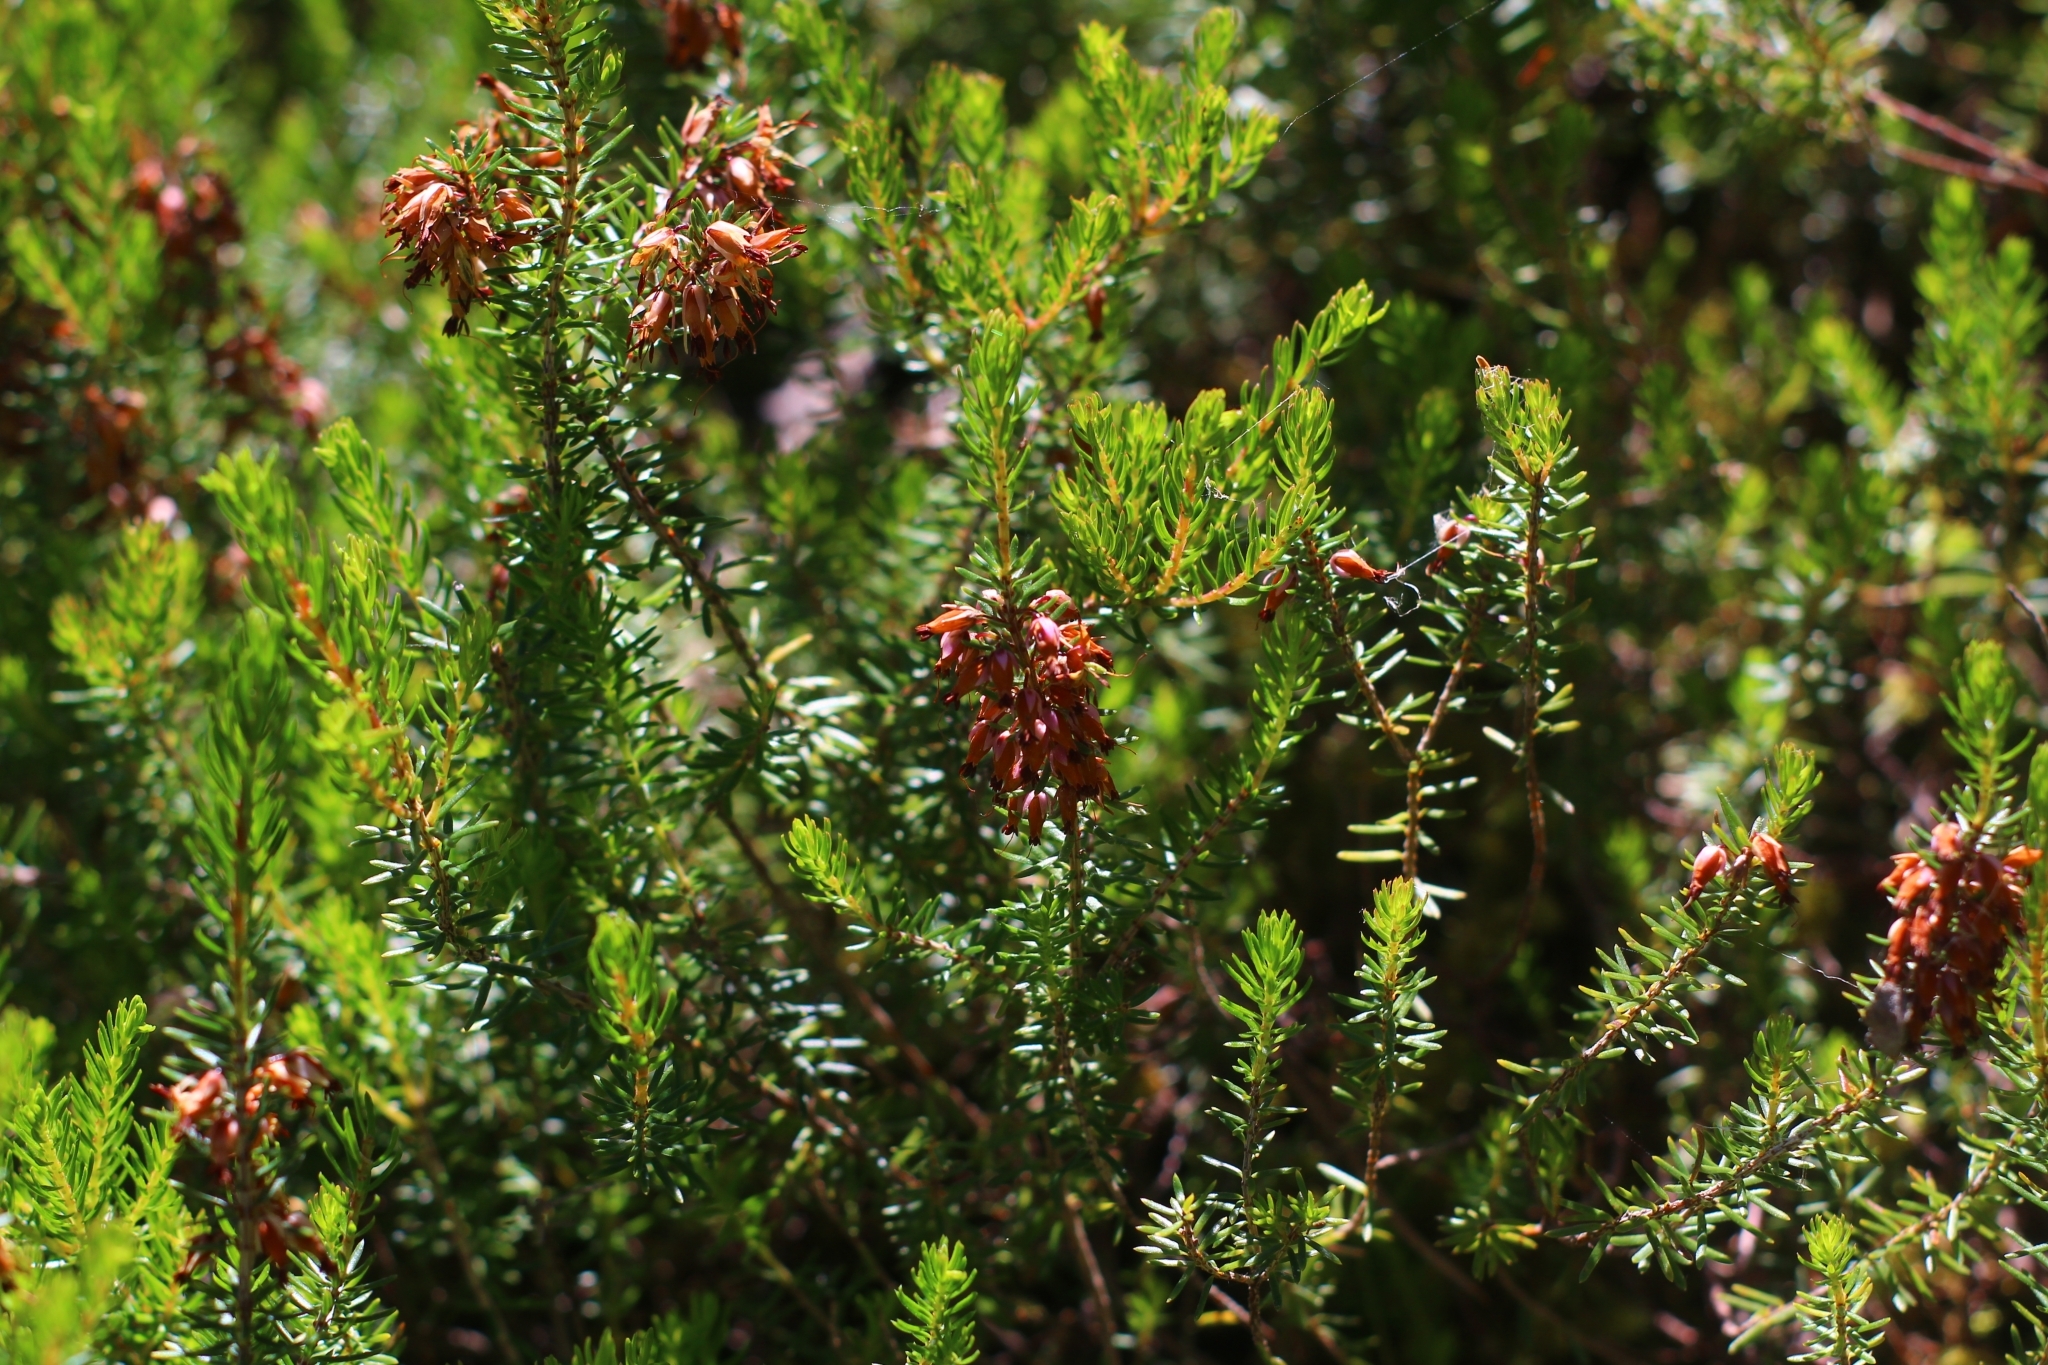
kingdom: Plantae
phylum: Tracheophyta
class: Magnoliopsida
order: Ericales
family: Ericaceae
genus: Erica
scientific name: Erica carnea
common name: Winter heath
